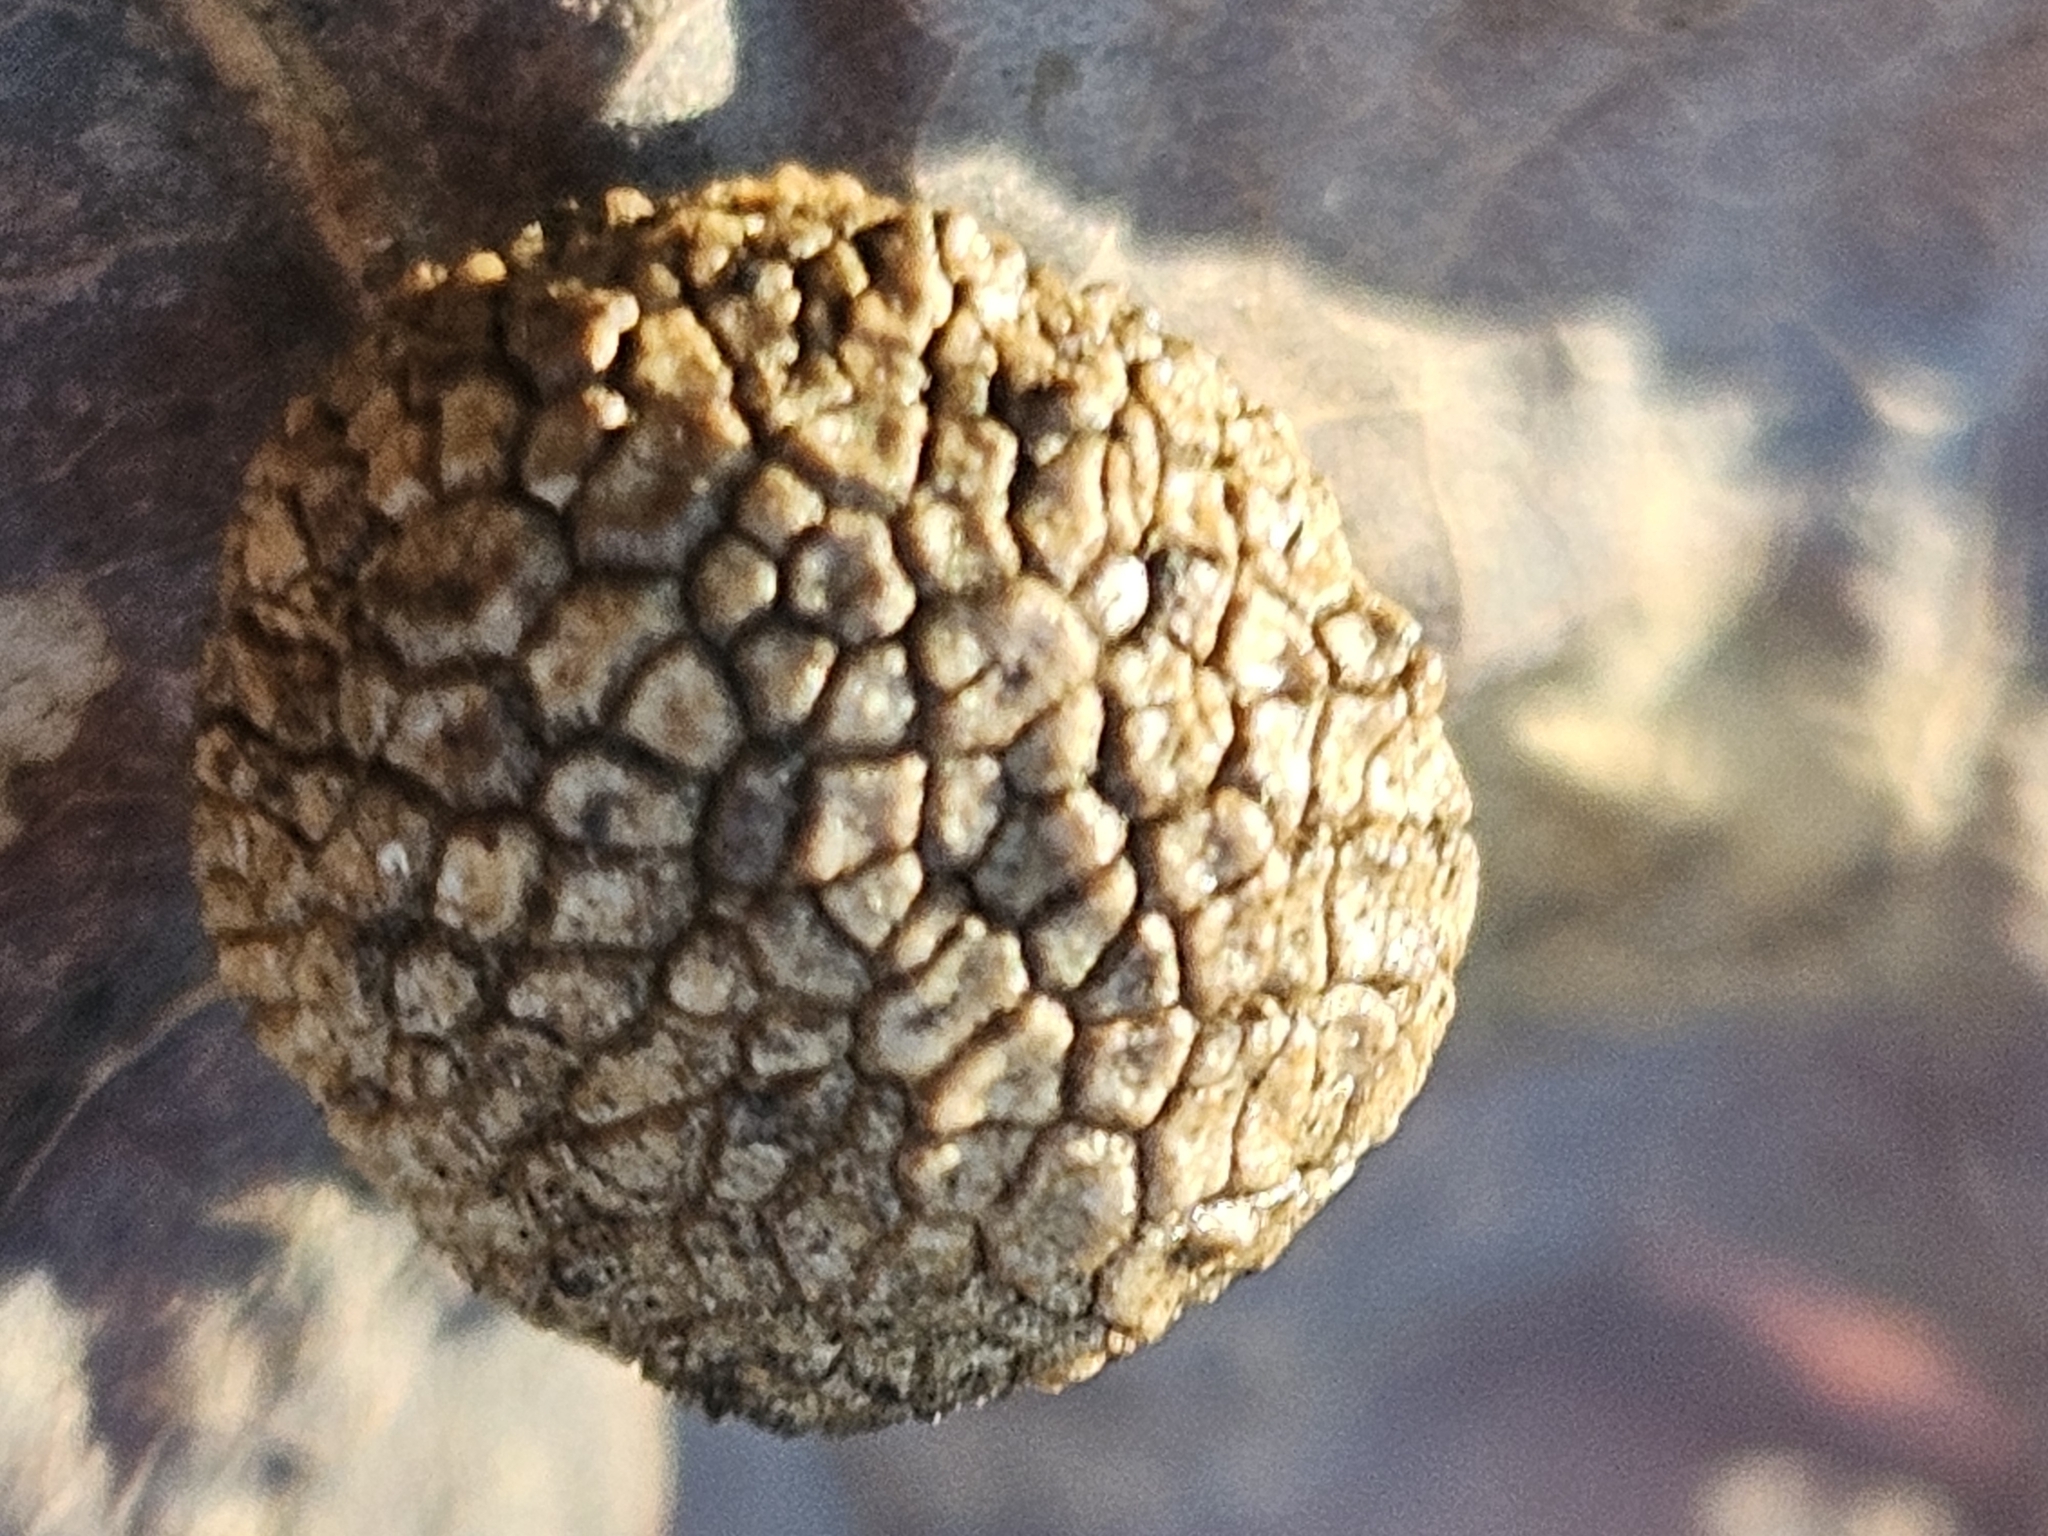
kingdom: Animalia
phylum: Arthropoda
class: Insecta
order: Hymenoptera
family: Cynipidae
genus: Acraspis
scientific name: Acraspis quercushirta
